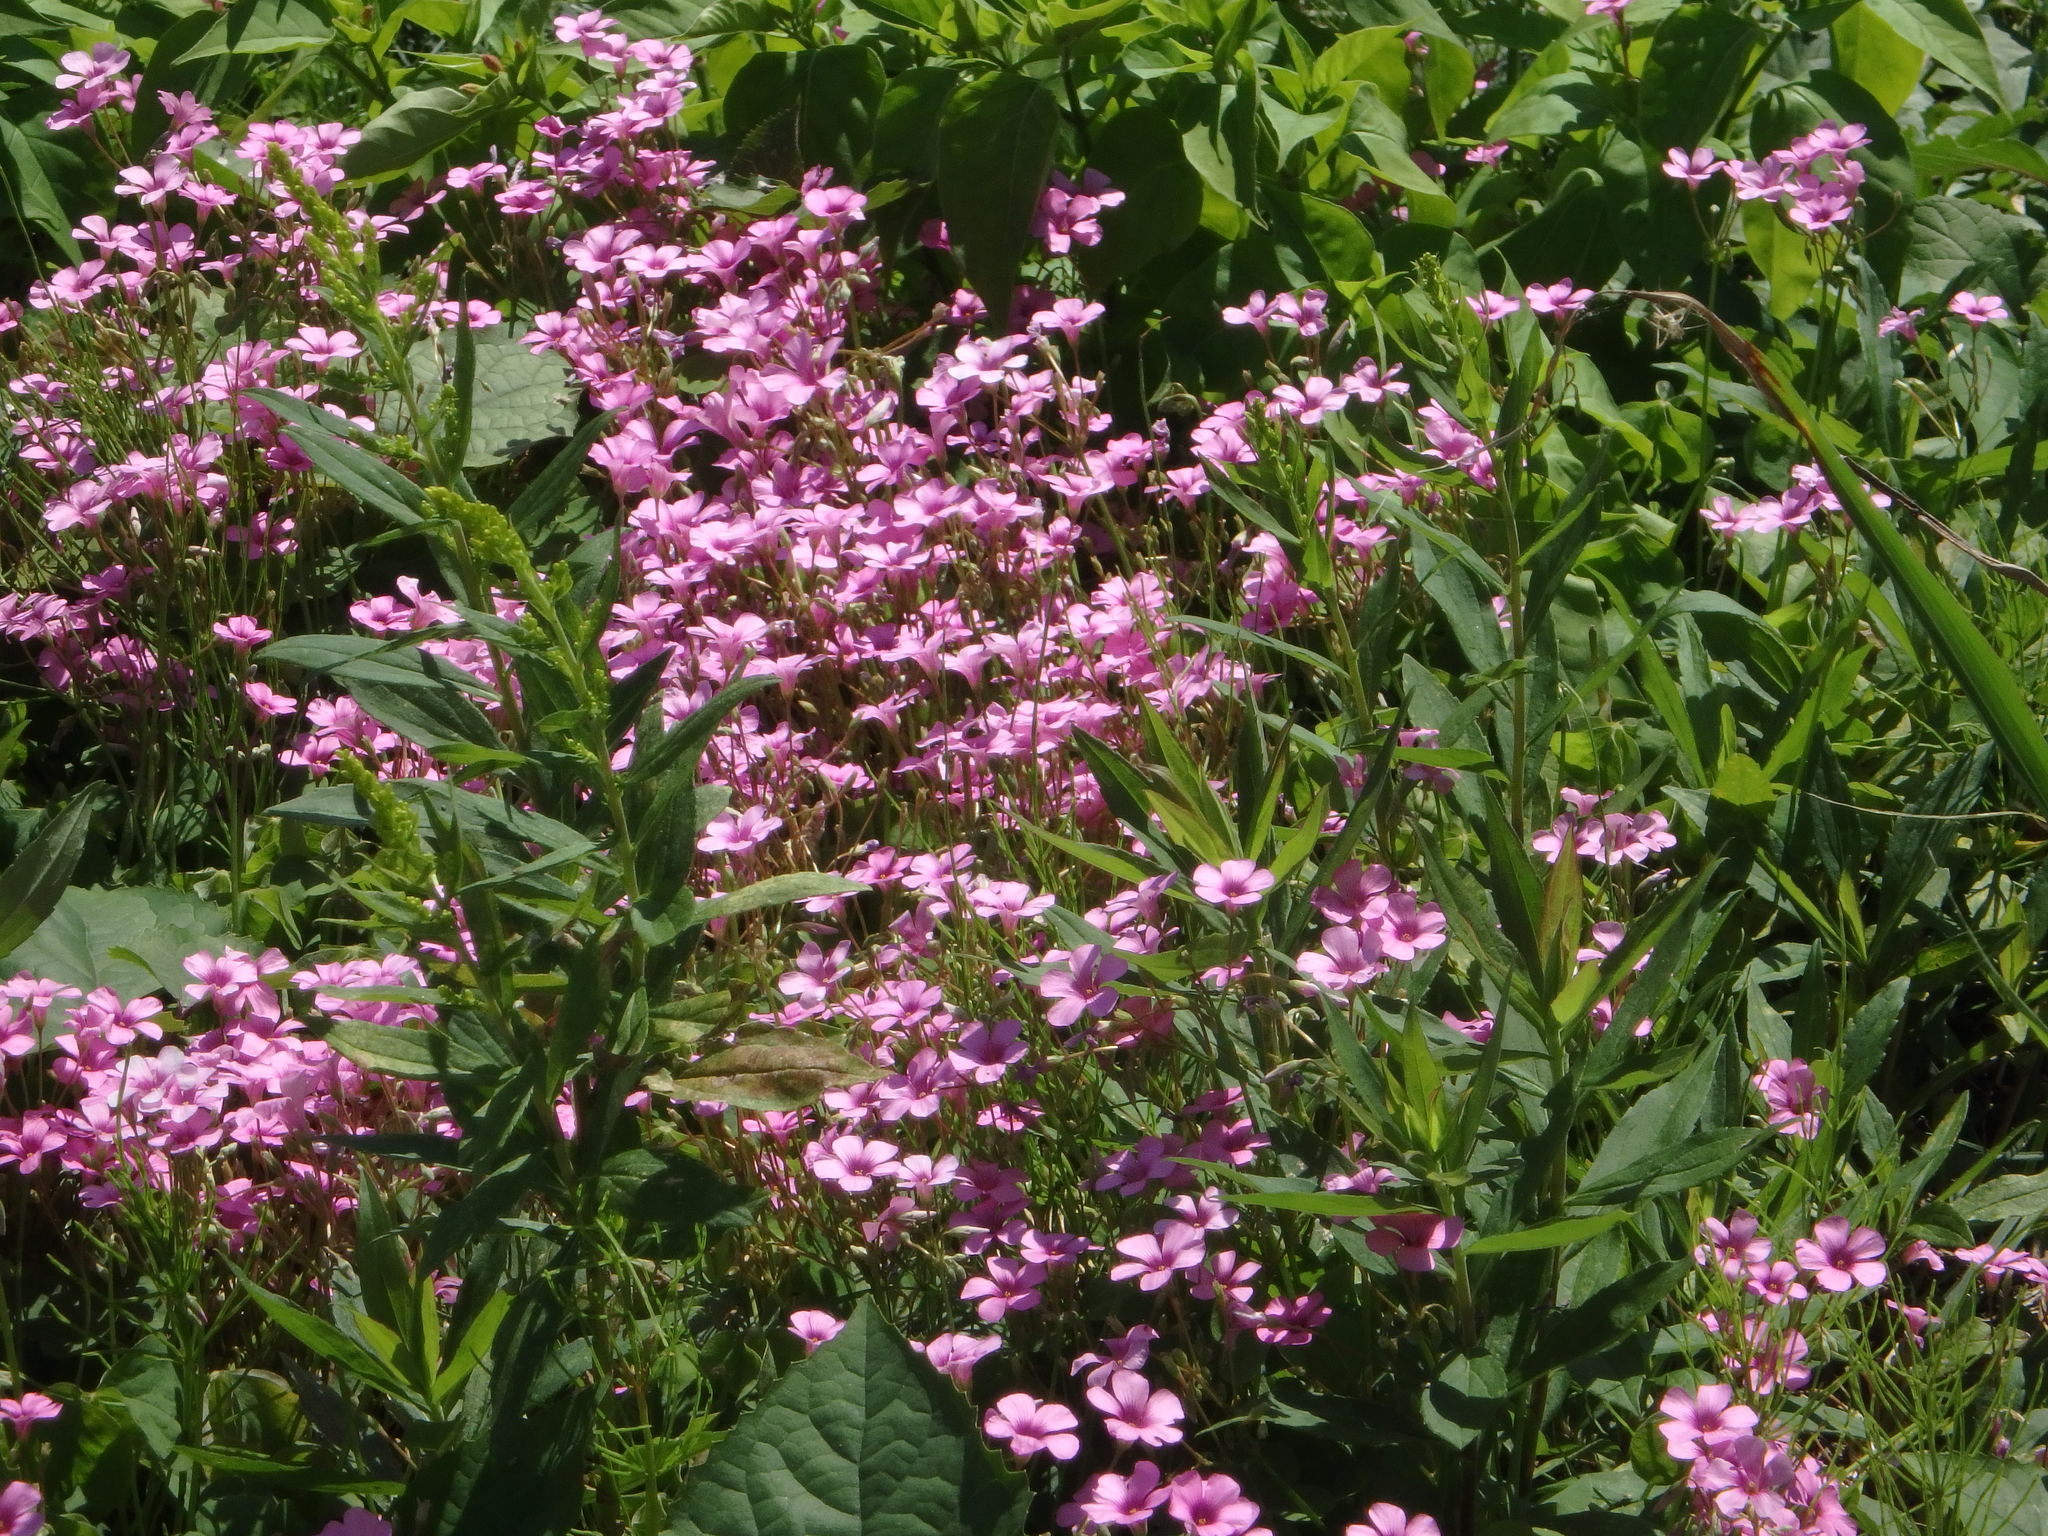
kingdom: Plantae
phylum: Tracheophyta
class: Magnoliopsida
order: Oxalidales
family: Oxalidaceae
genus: Oxalis
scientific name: Oxalis articulata
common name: Pink-sorrel
